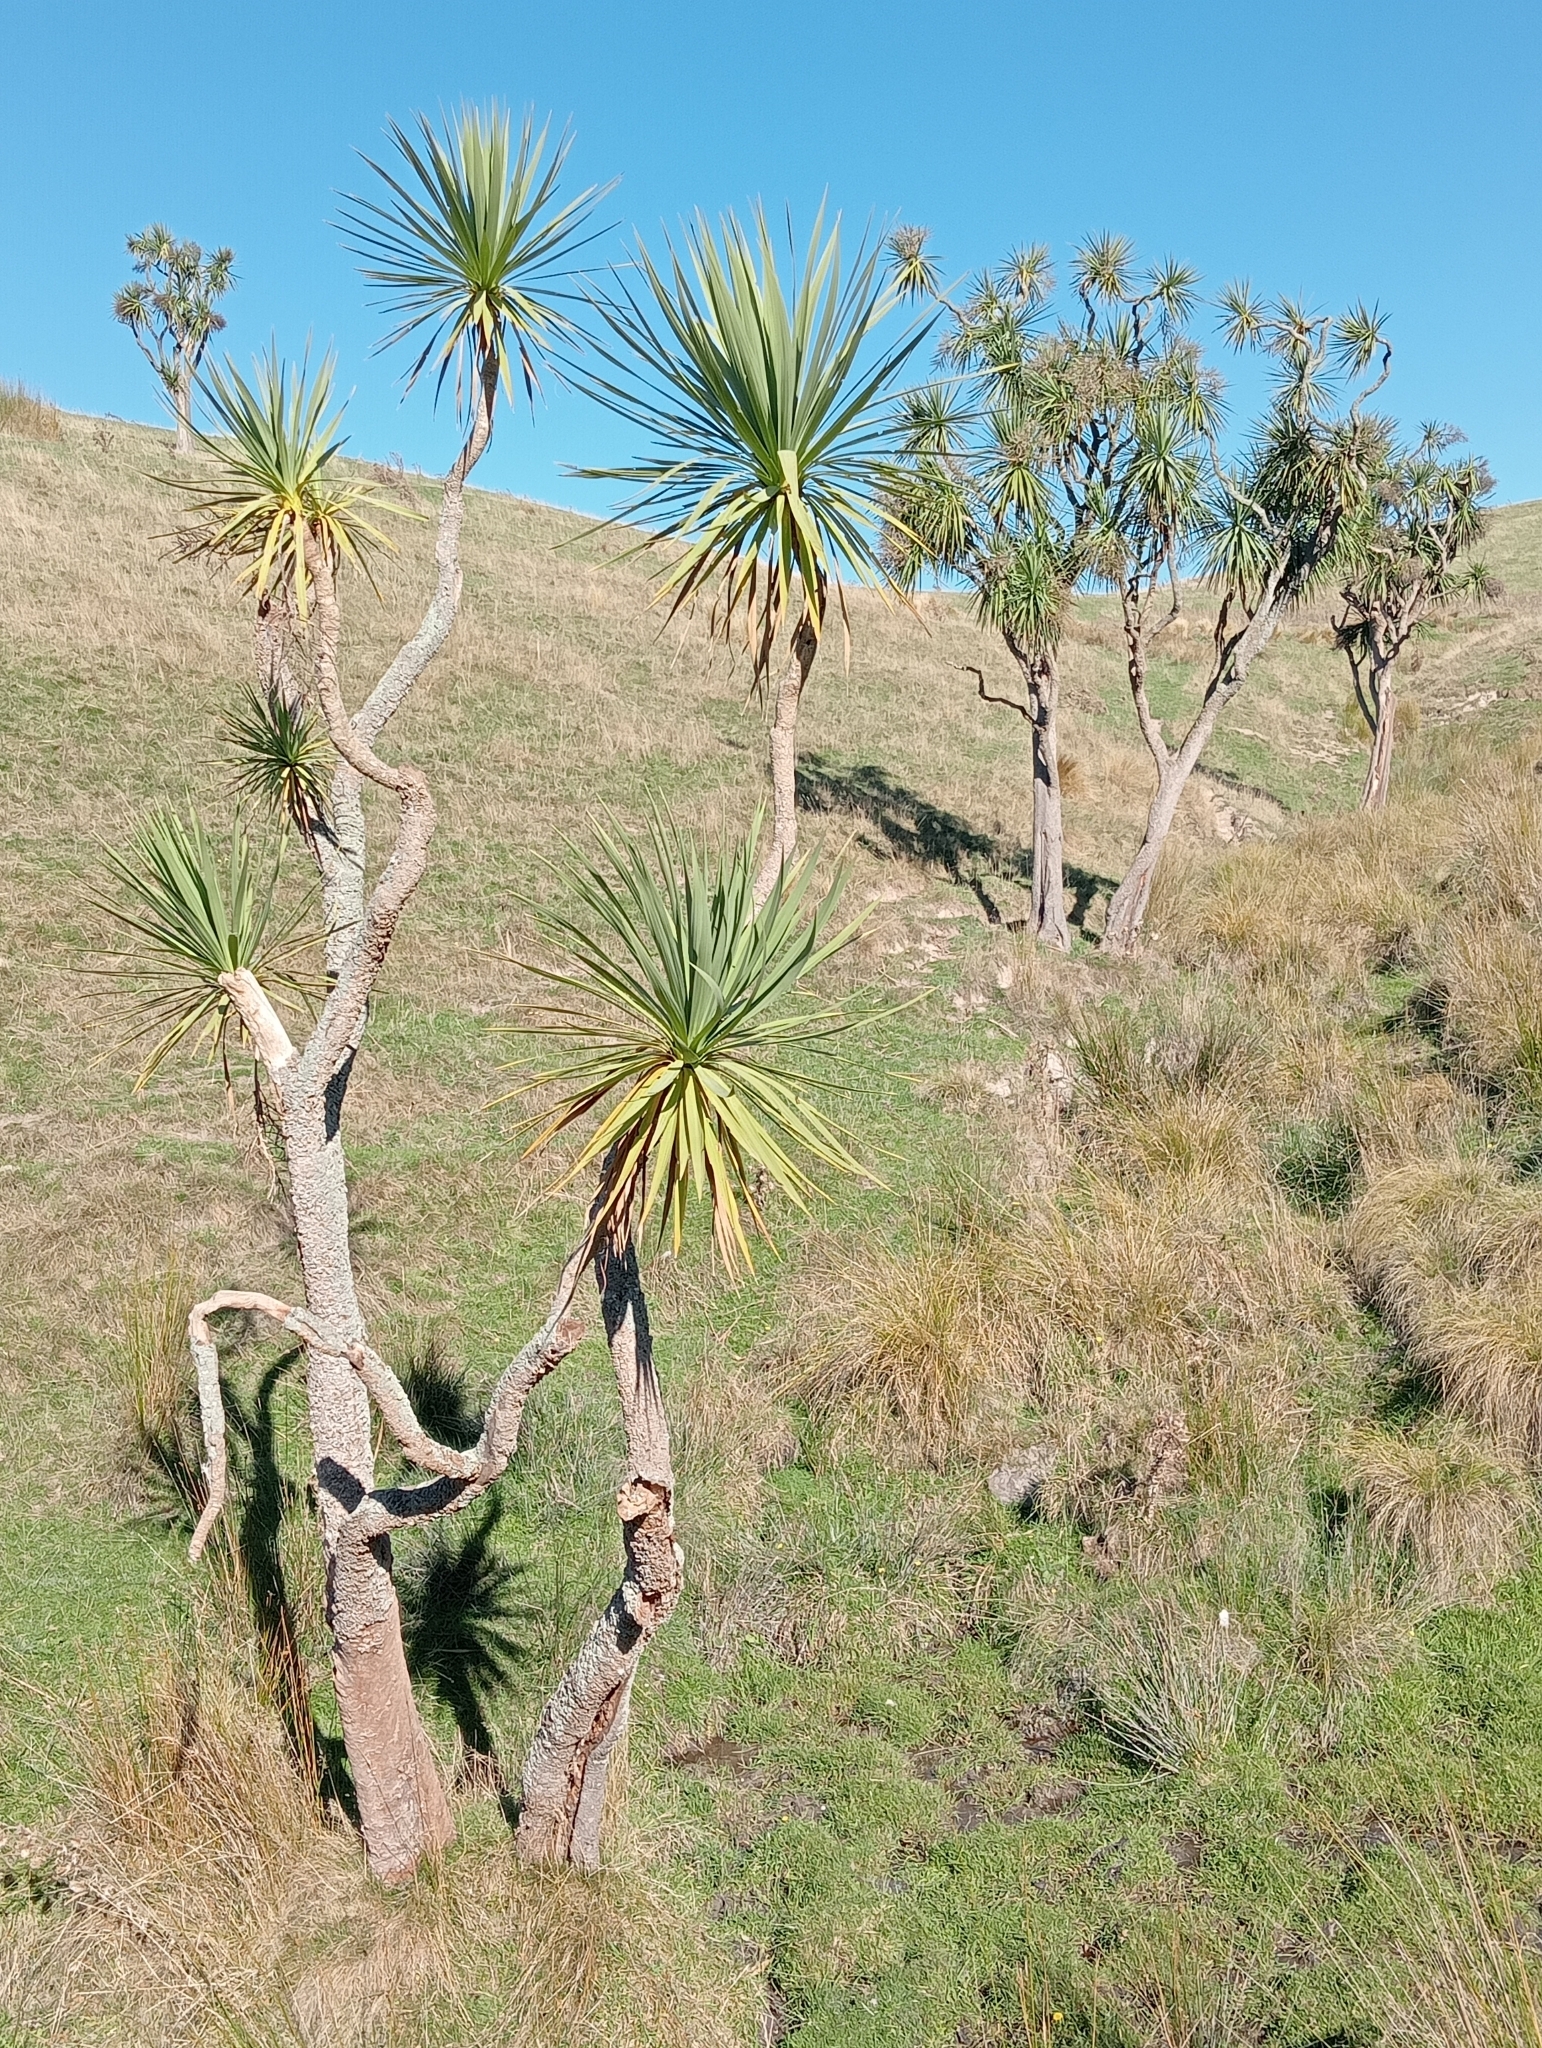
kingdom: Plantae
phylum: Tracheophyta
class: Liliopsida
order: Asparagales
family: Asparagaceae
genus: Cordyline
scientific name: Cordyline australis
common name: Cabbage-palm
